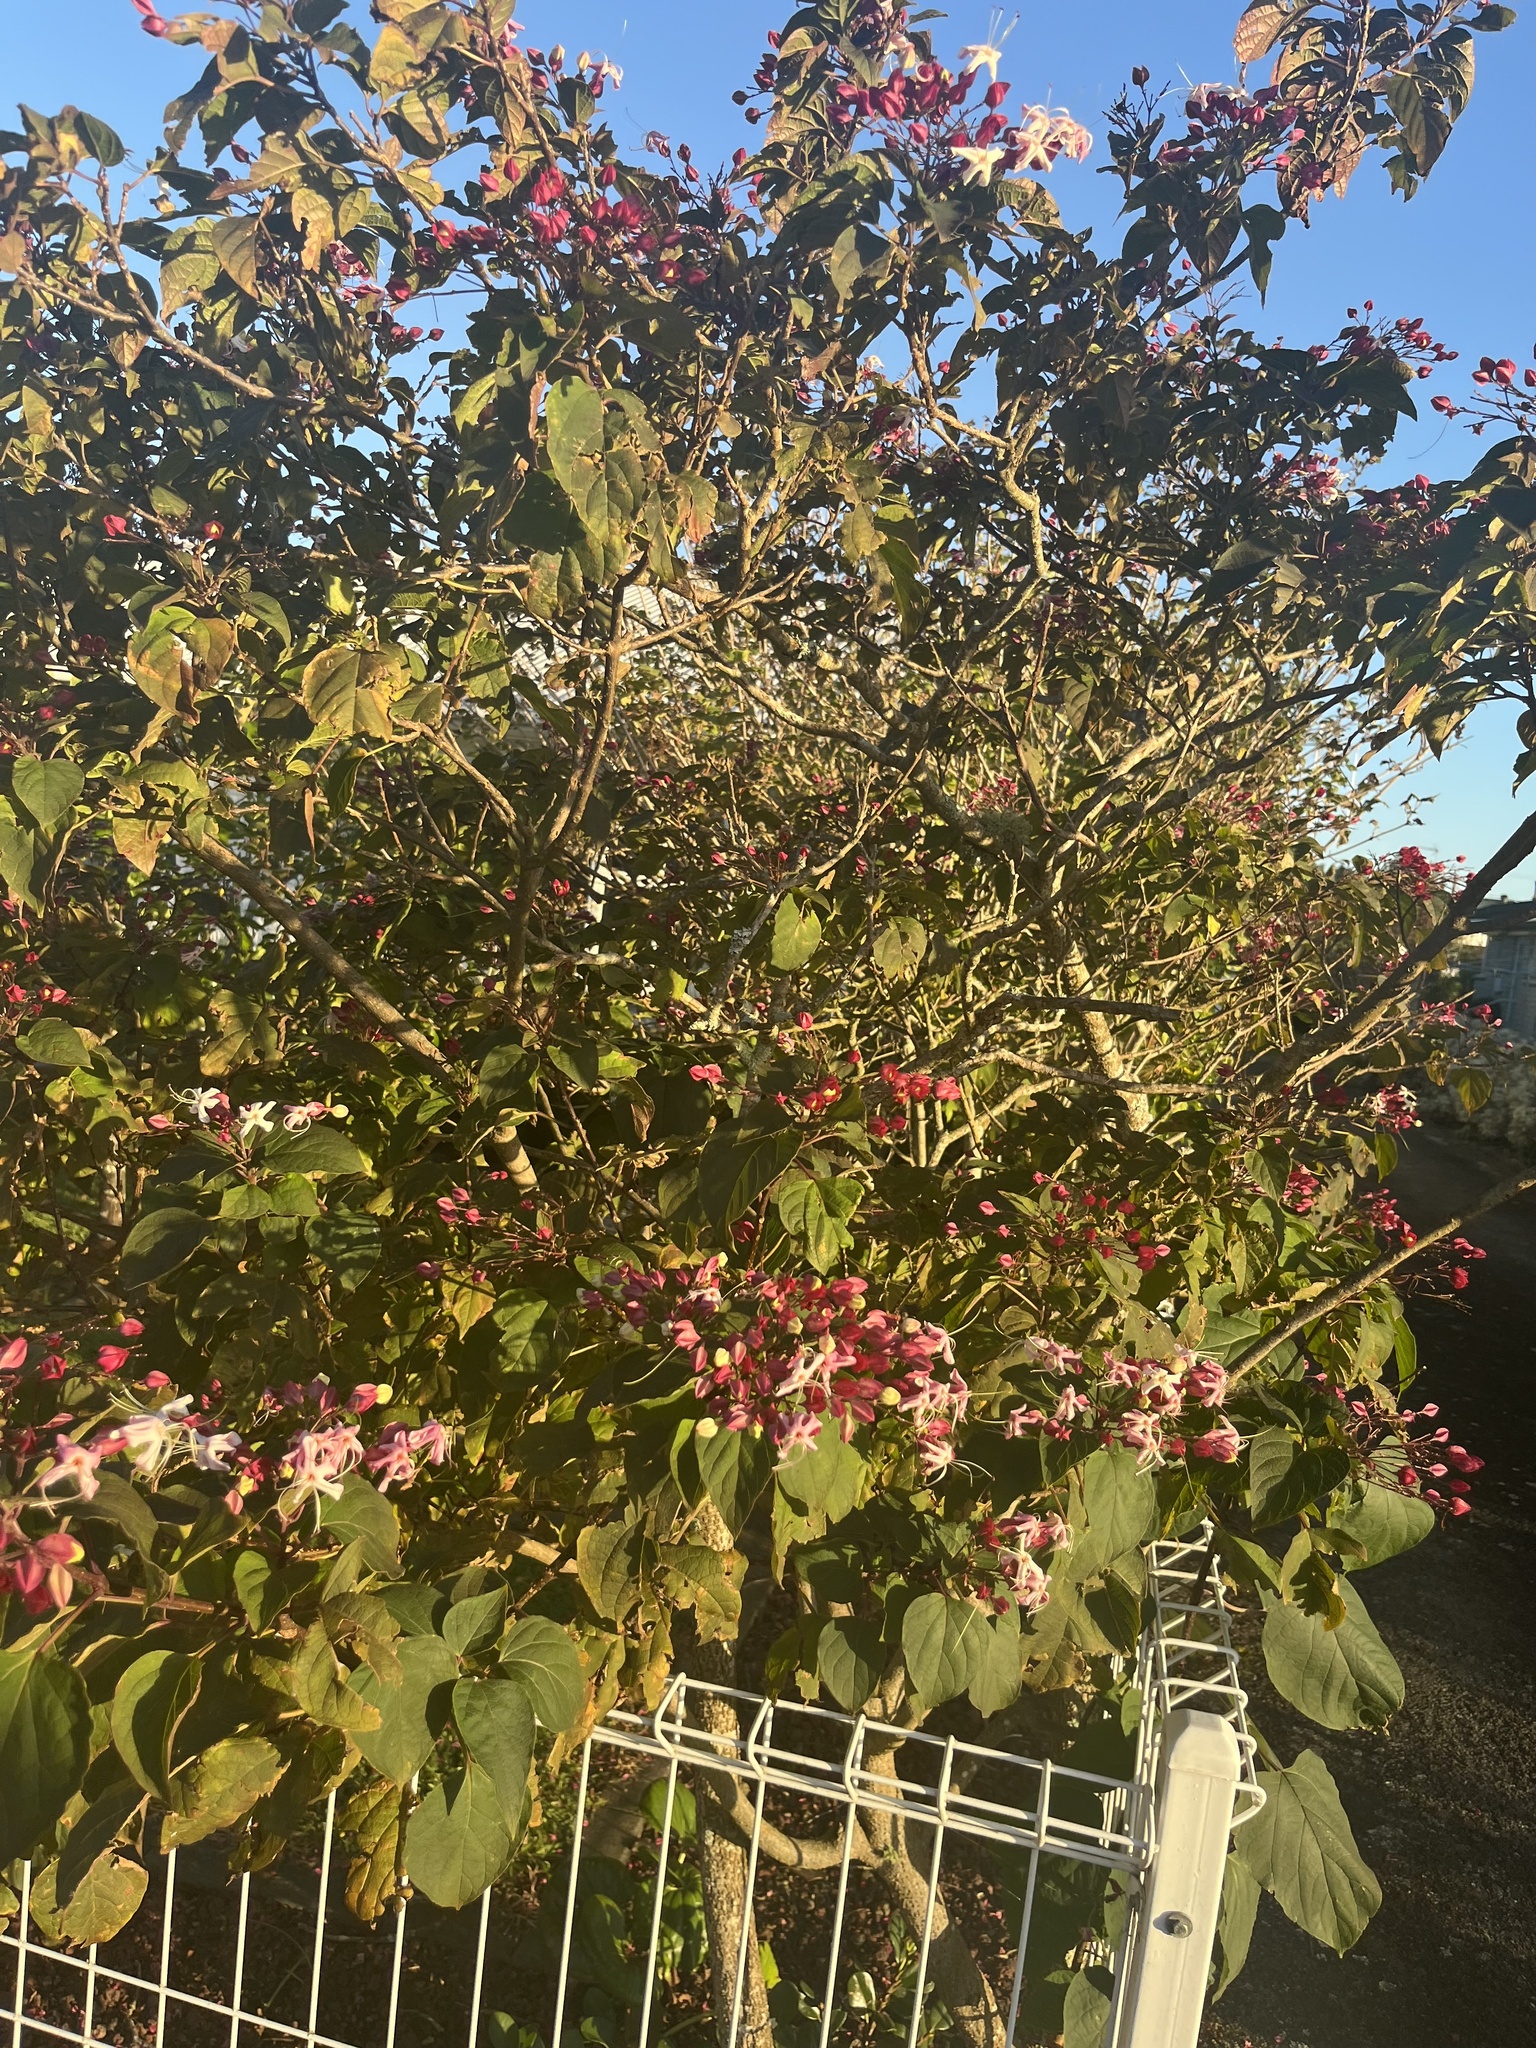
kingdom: Plantae
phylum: Tracheophyta
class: Magnoliopsida
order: Lamiales
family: Lamiaceae
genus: Clerodendrum
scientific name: Clerodendrum trichotomum
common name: Harlequin glorybower
